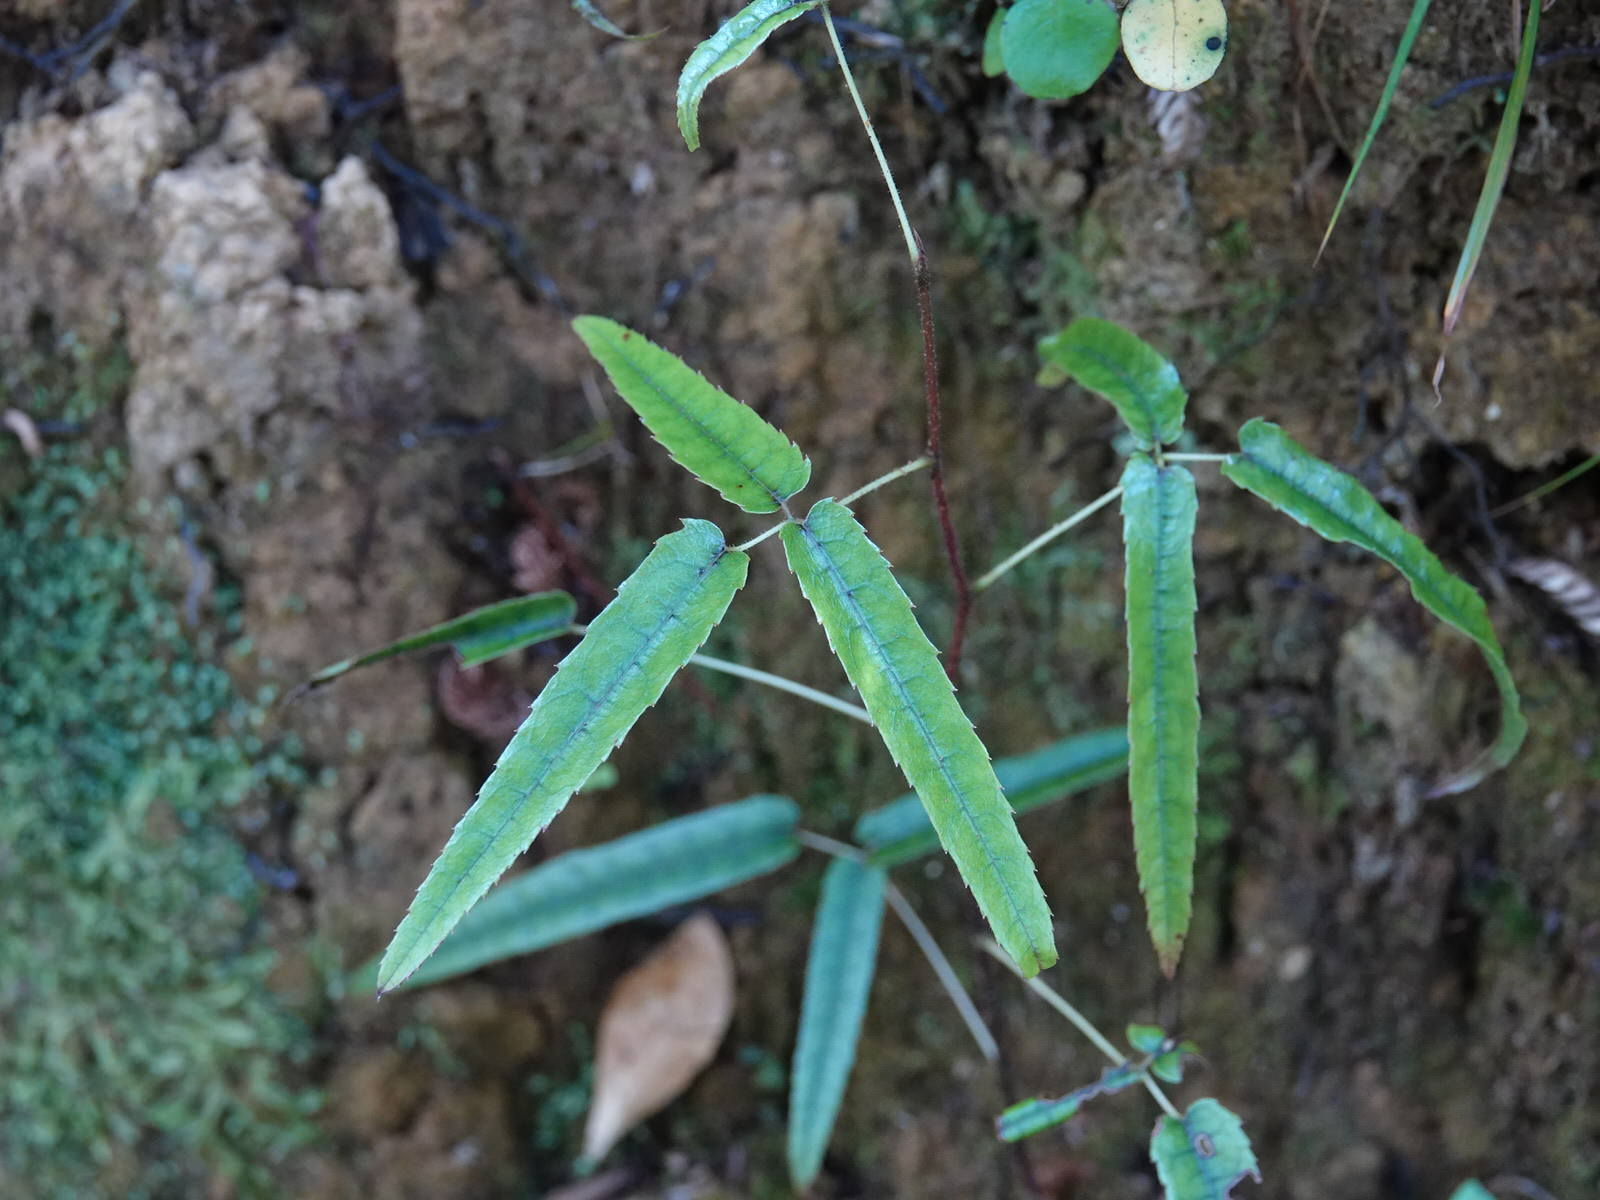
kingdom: Plantae
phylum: Tracheophyta
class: Magnoliopsida
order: Rosales
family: Rosaceae
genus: Rubus
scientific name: Rubus cissoides
